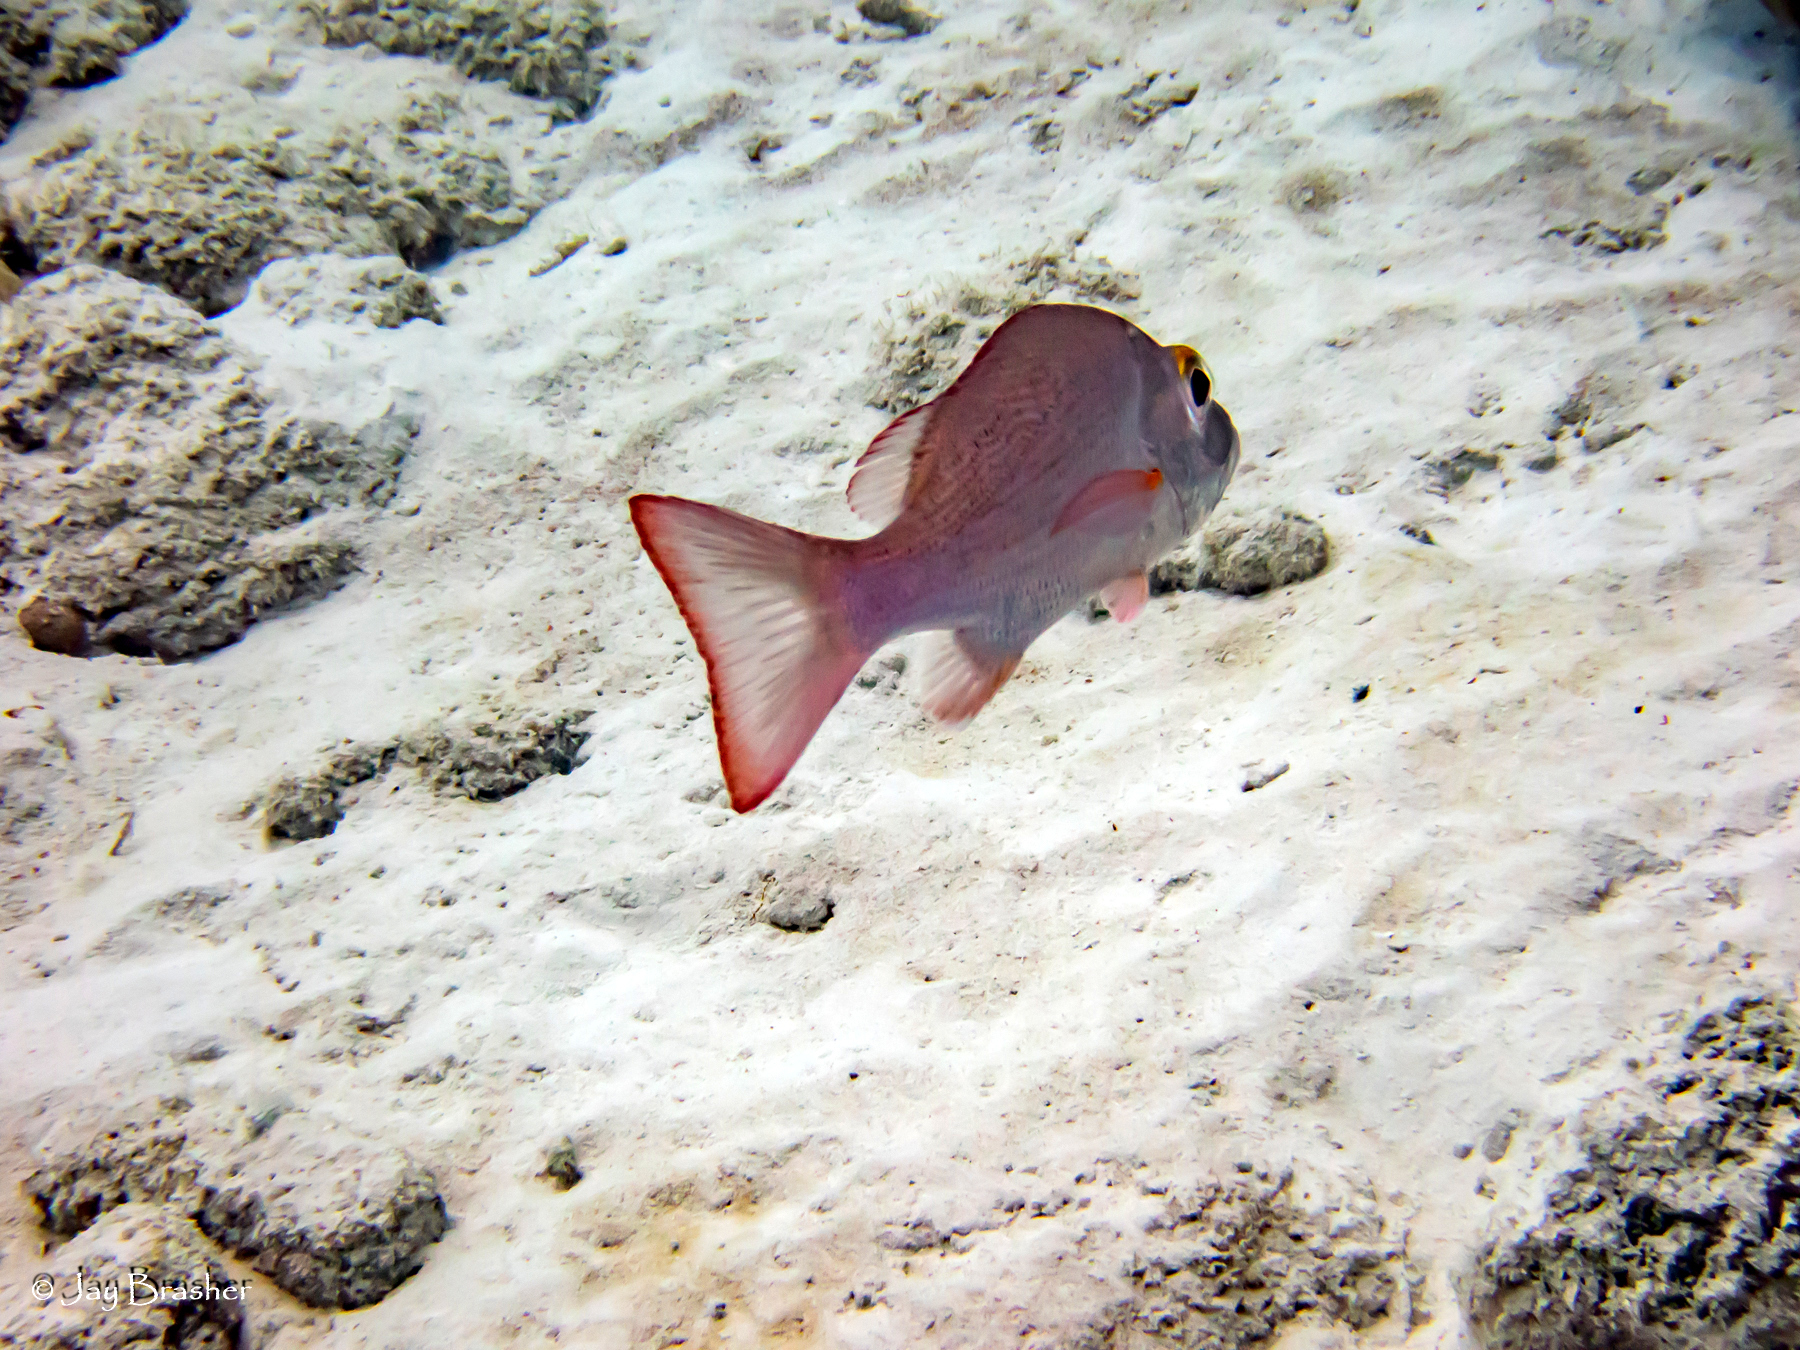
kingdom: Animalia
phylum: Chordata
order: Perciformes
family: Lutjanidae
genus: Lutjanus
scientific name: Lutjanus mahogoni
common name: Spot snapper
